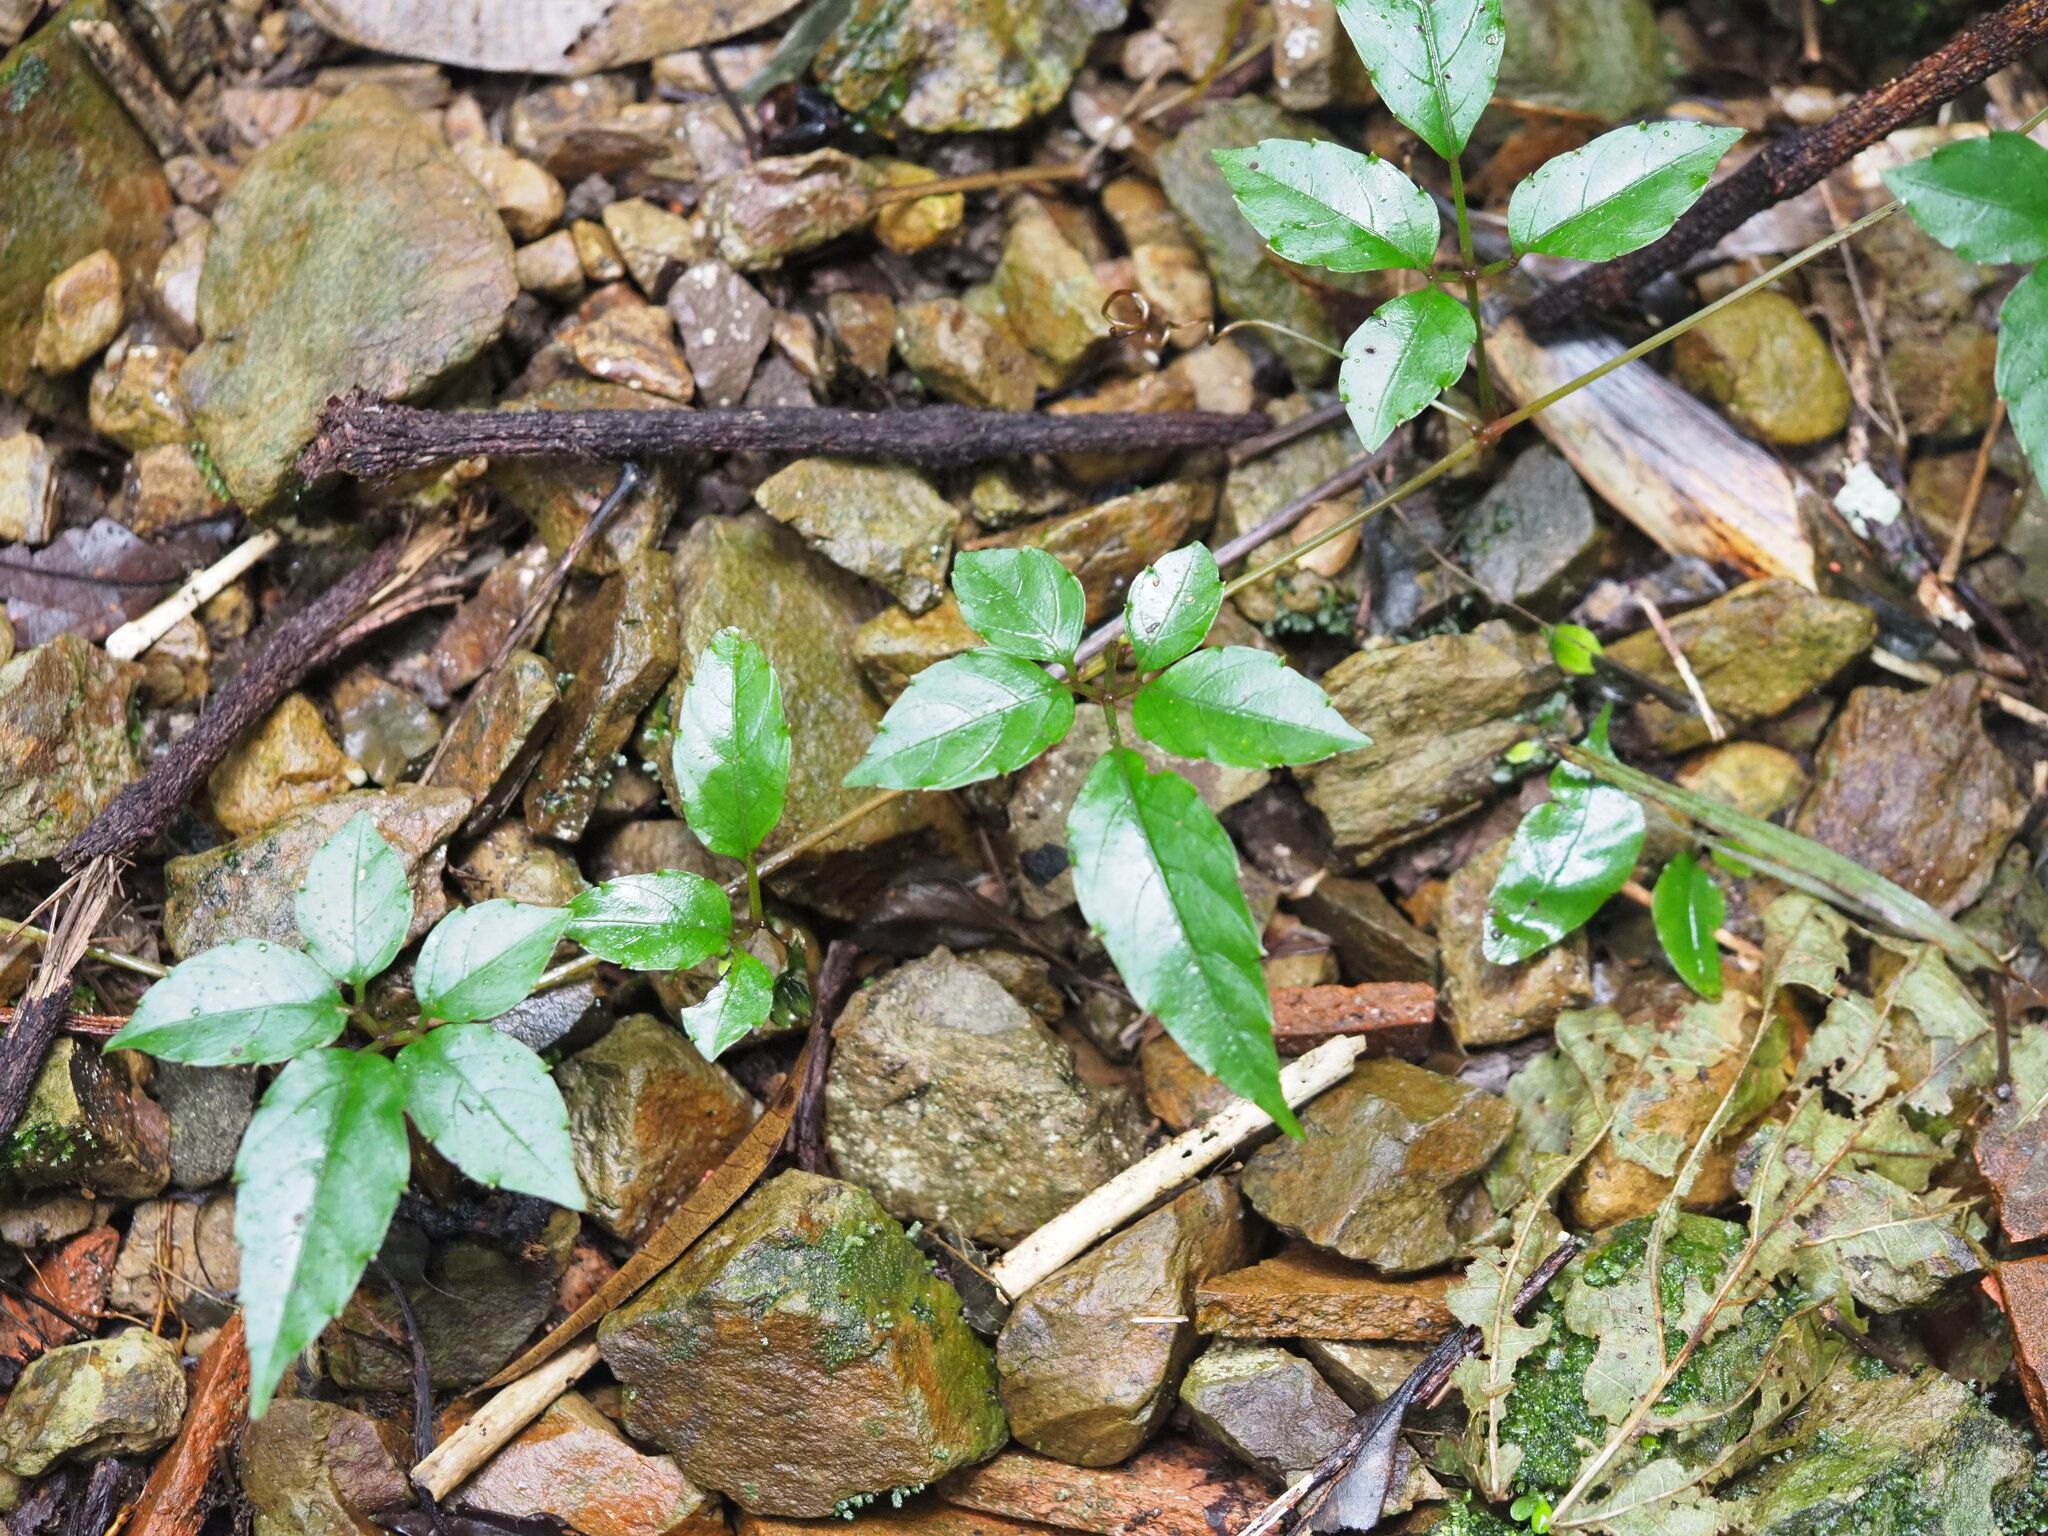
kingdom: Plantae
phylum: Tracheophyta
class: Magnoliopsida
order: Vitales
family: Vitaceae
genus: Causonis
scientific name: Causonis corniculata
